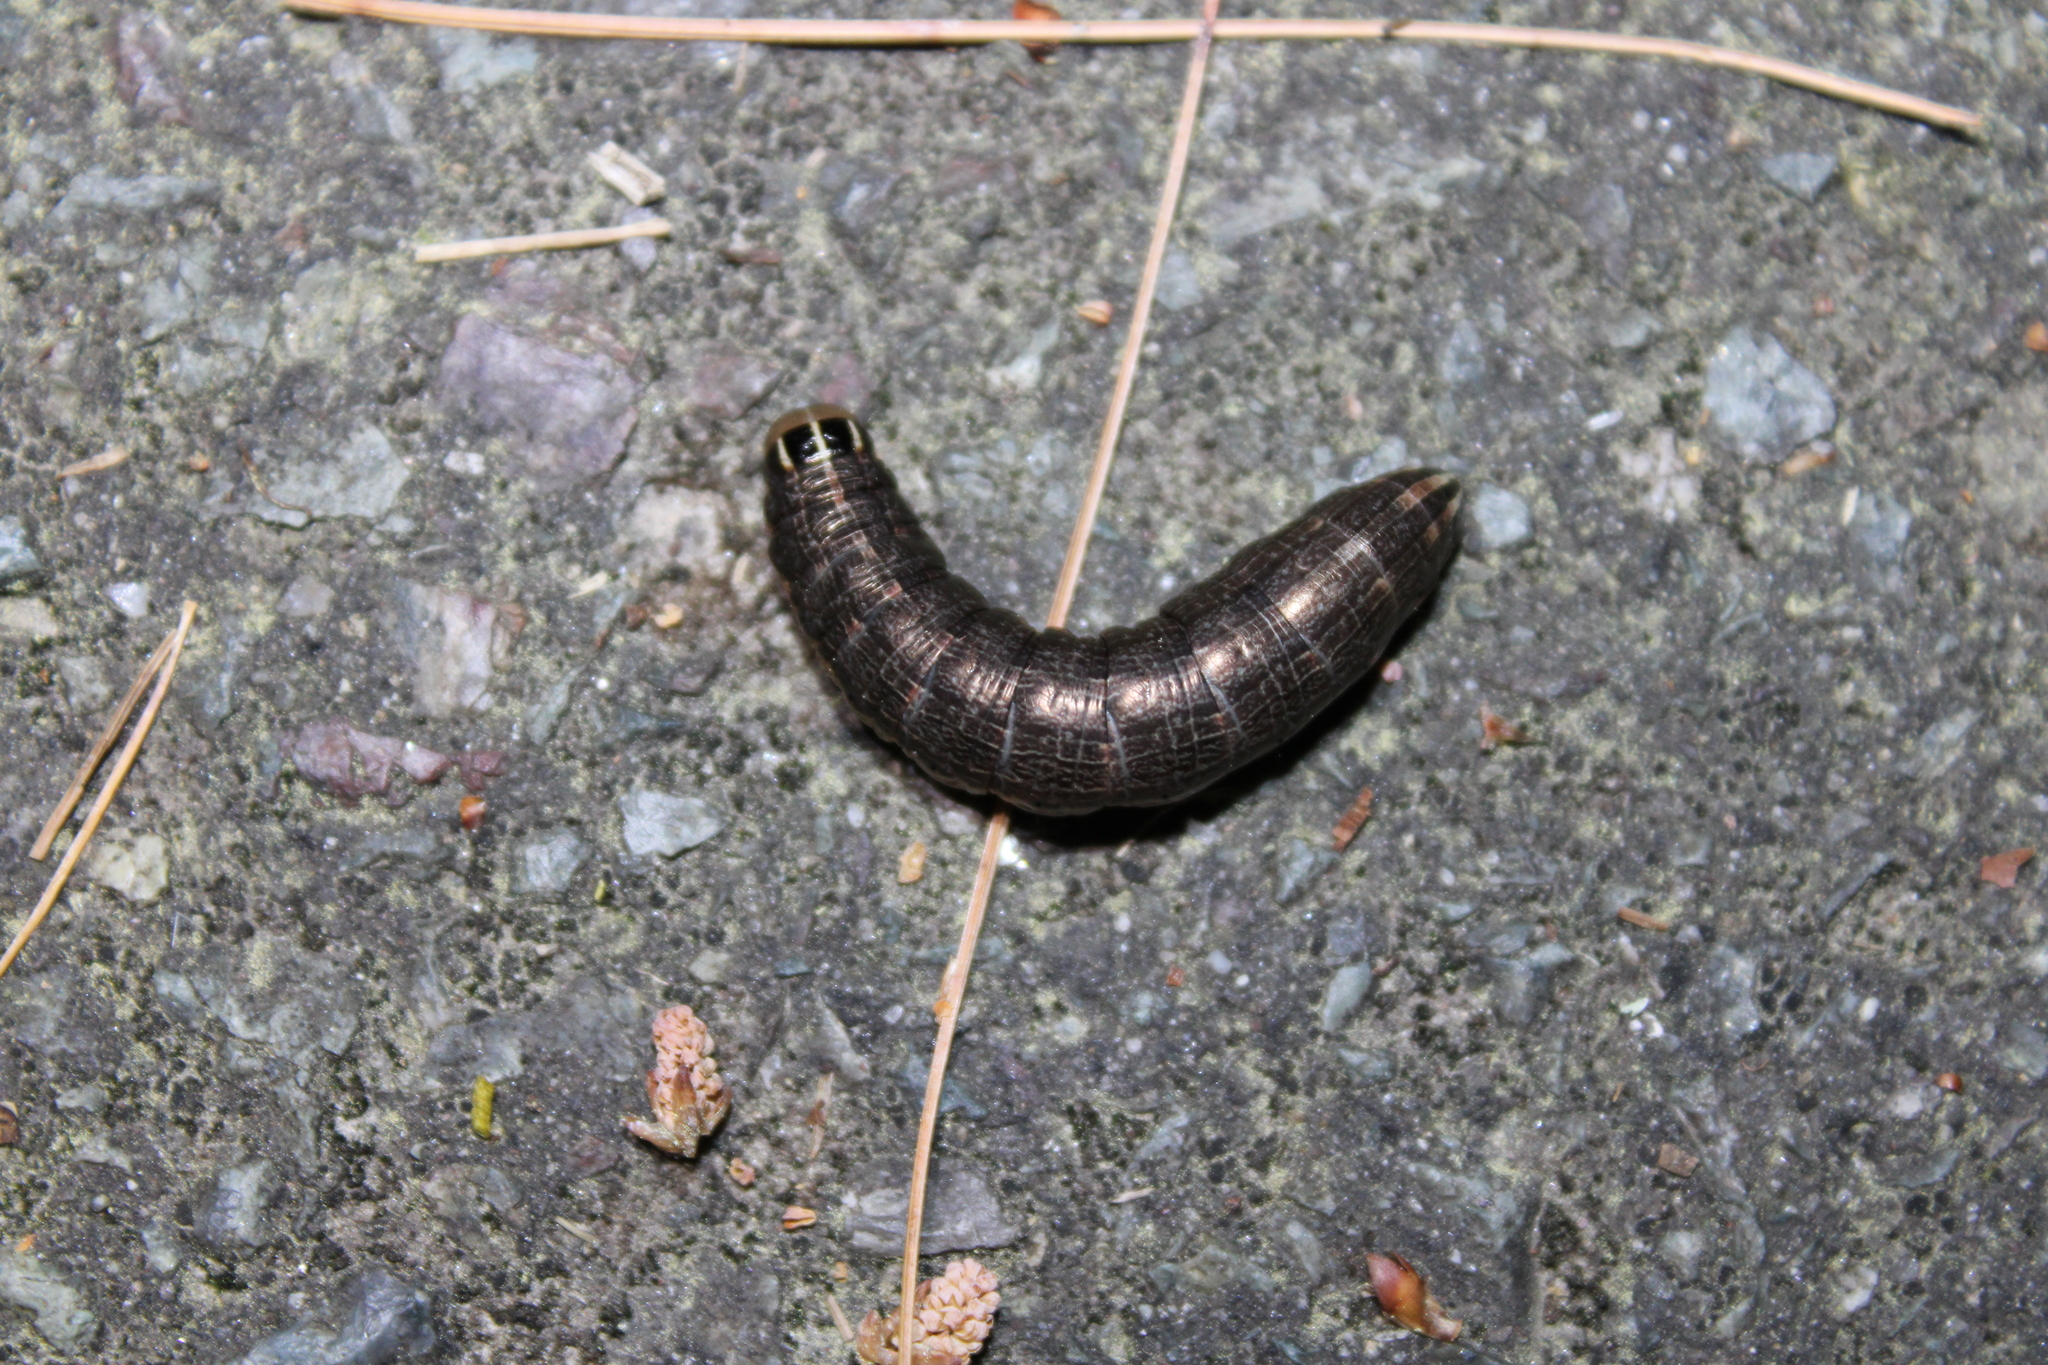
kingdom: Animalia
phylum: Arthropoda
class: Insecta
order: Lepidoptera
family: Noctuidae
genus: Nephelodes
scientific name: Nephelodes minians
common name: Bronzed cutworm
